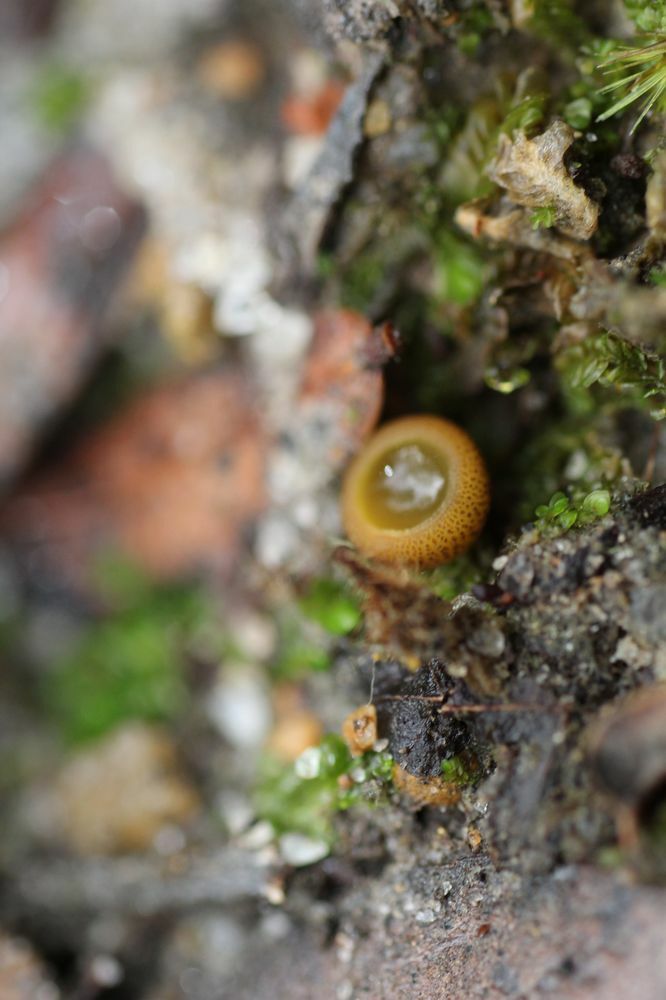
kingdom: Fungi
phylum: Ascomycota
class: Pezizomycetes
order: Pezizales
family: Pyronemataceae
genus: Aleurina
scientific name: Aleurina ferruginea
